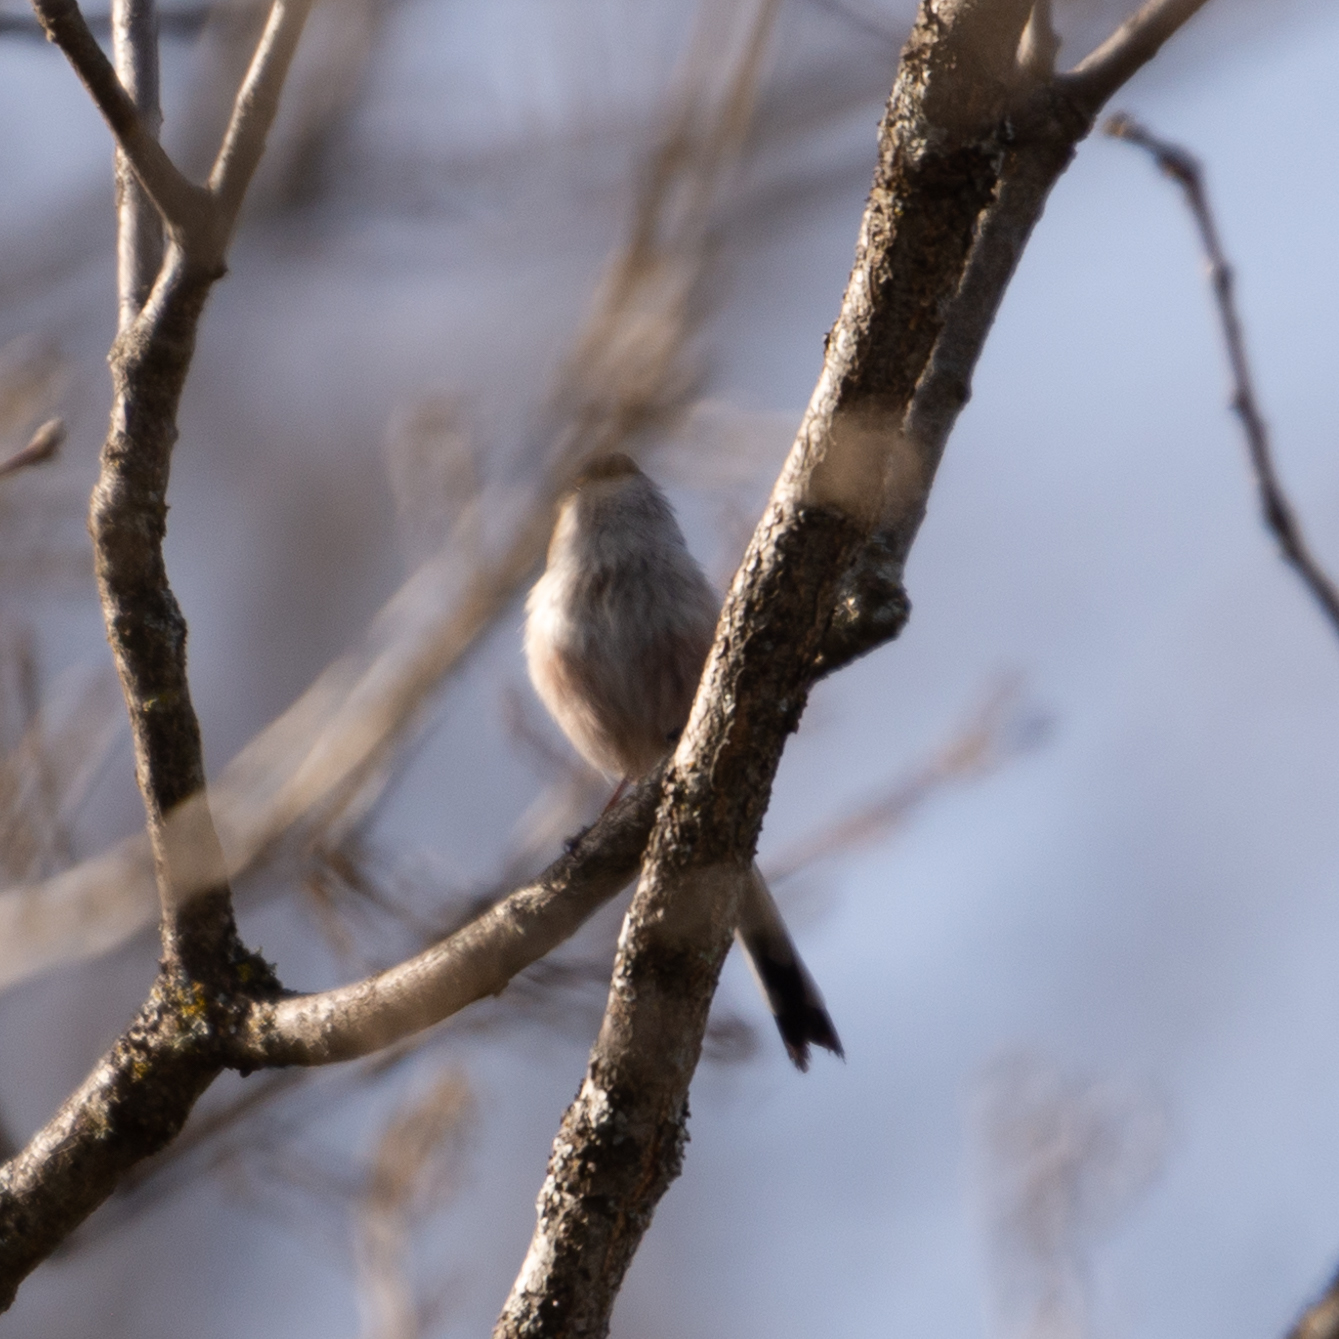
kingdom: Animalia
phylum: Chordata
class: Aves
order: Passeriformes
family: Aegithalidae
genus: Aegithalos
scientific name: Aegithalos caudatus
